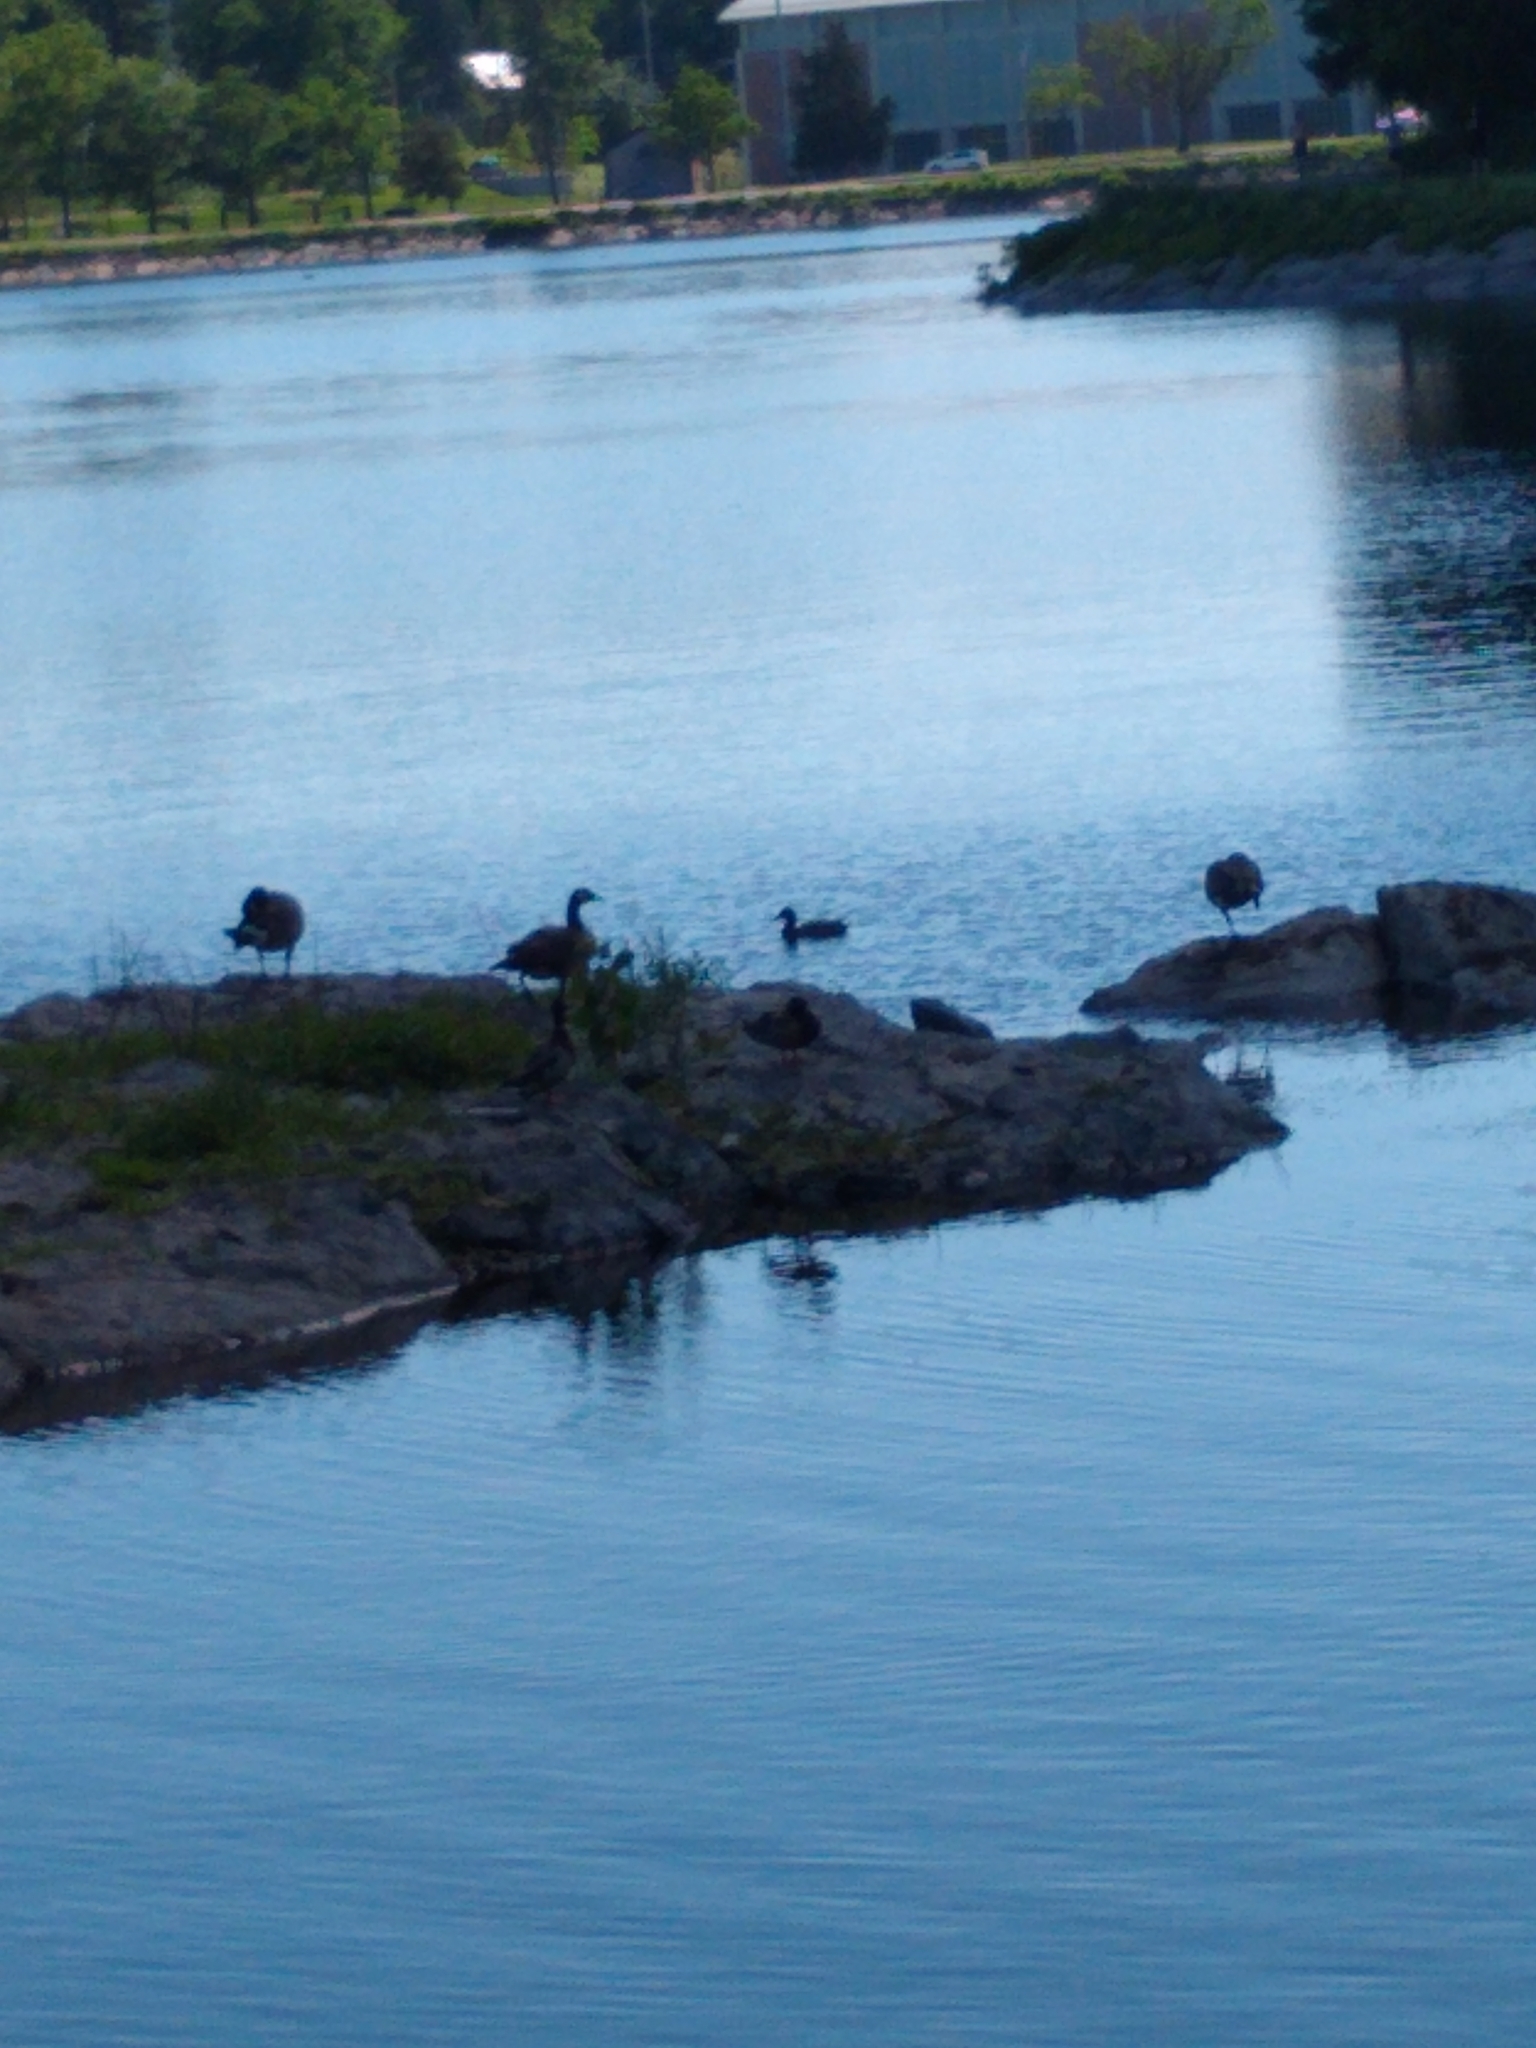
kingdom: Animalia
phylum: Chordata
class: Aves
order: Anseriformes
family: Anatidae
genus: Branta
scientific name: Branta canadensis
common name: Canada goose
